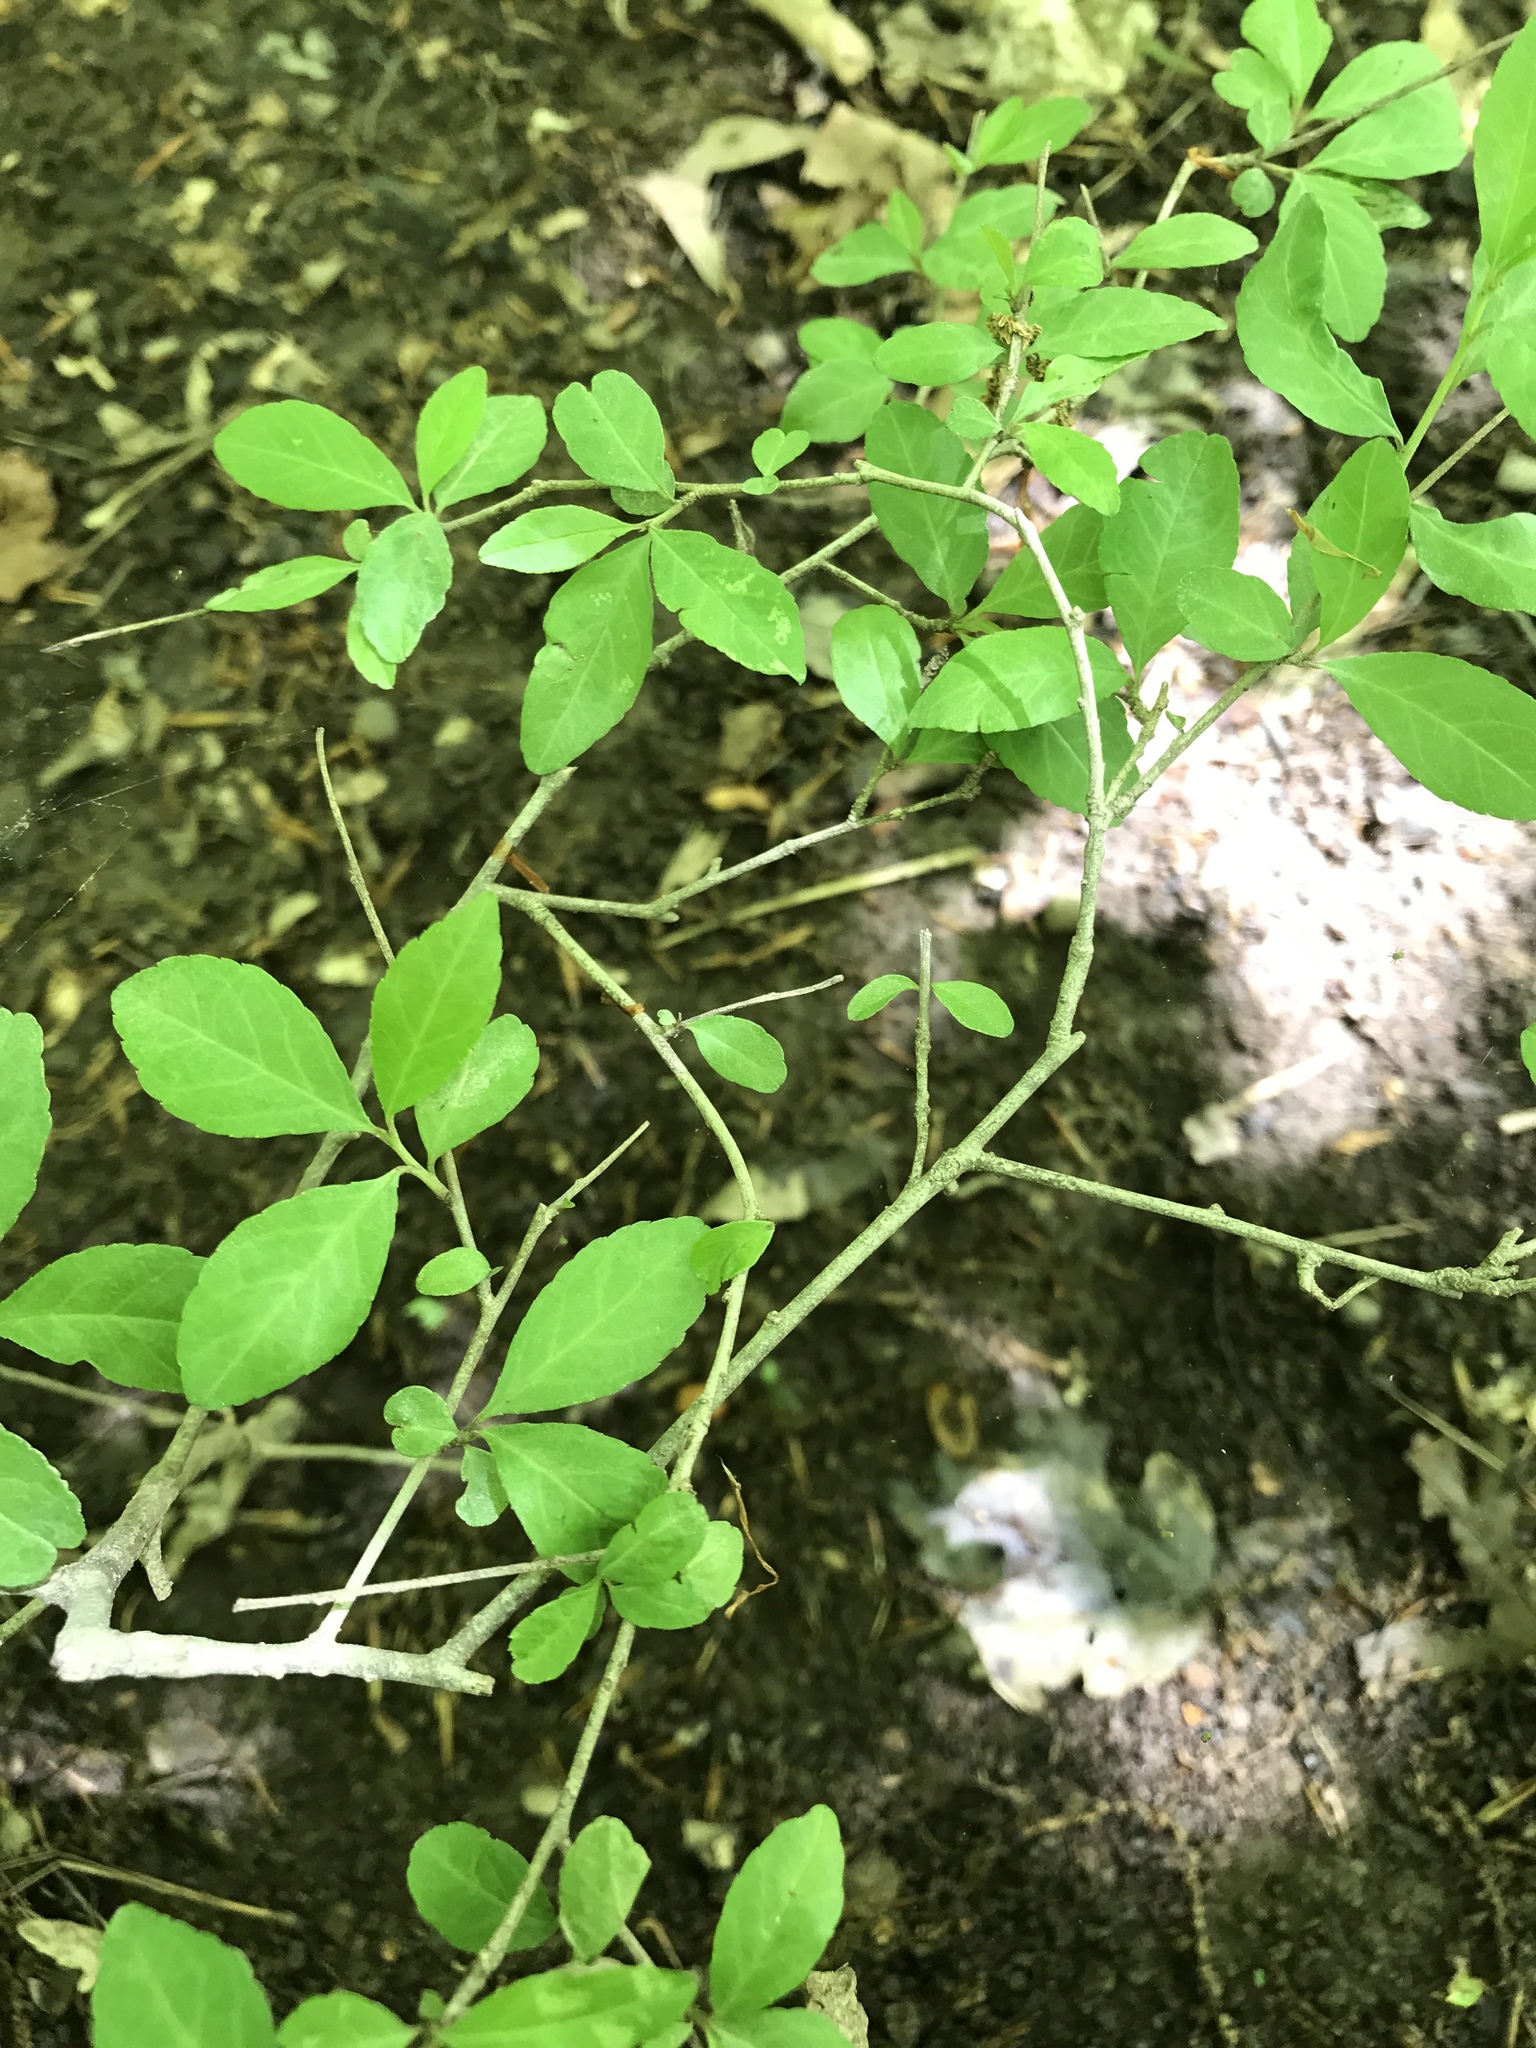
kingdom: Plantae
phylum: Tracheophyta
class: Magnoliopsida
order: Aquifoliales
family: Aquifoliaceae
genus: Ilex
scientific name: Ilex decidua
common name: Possum-haw
